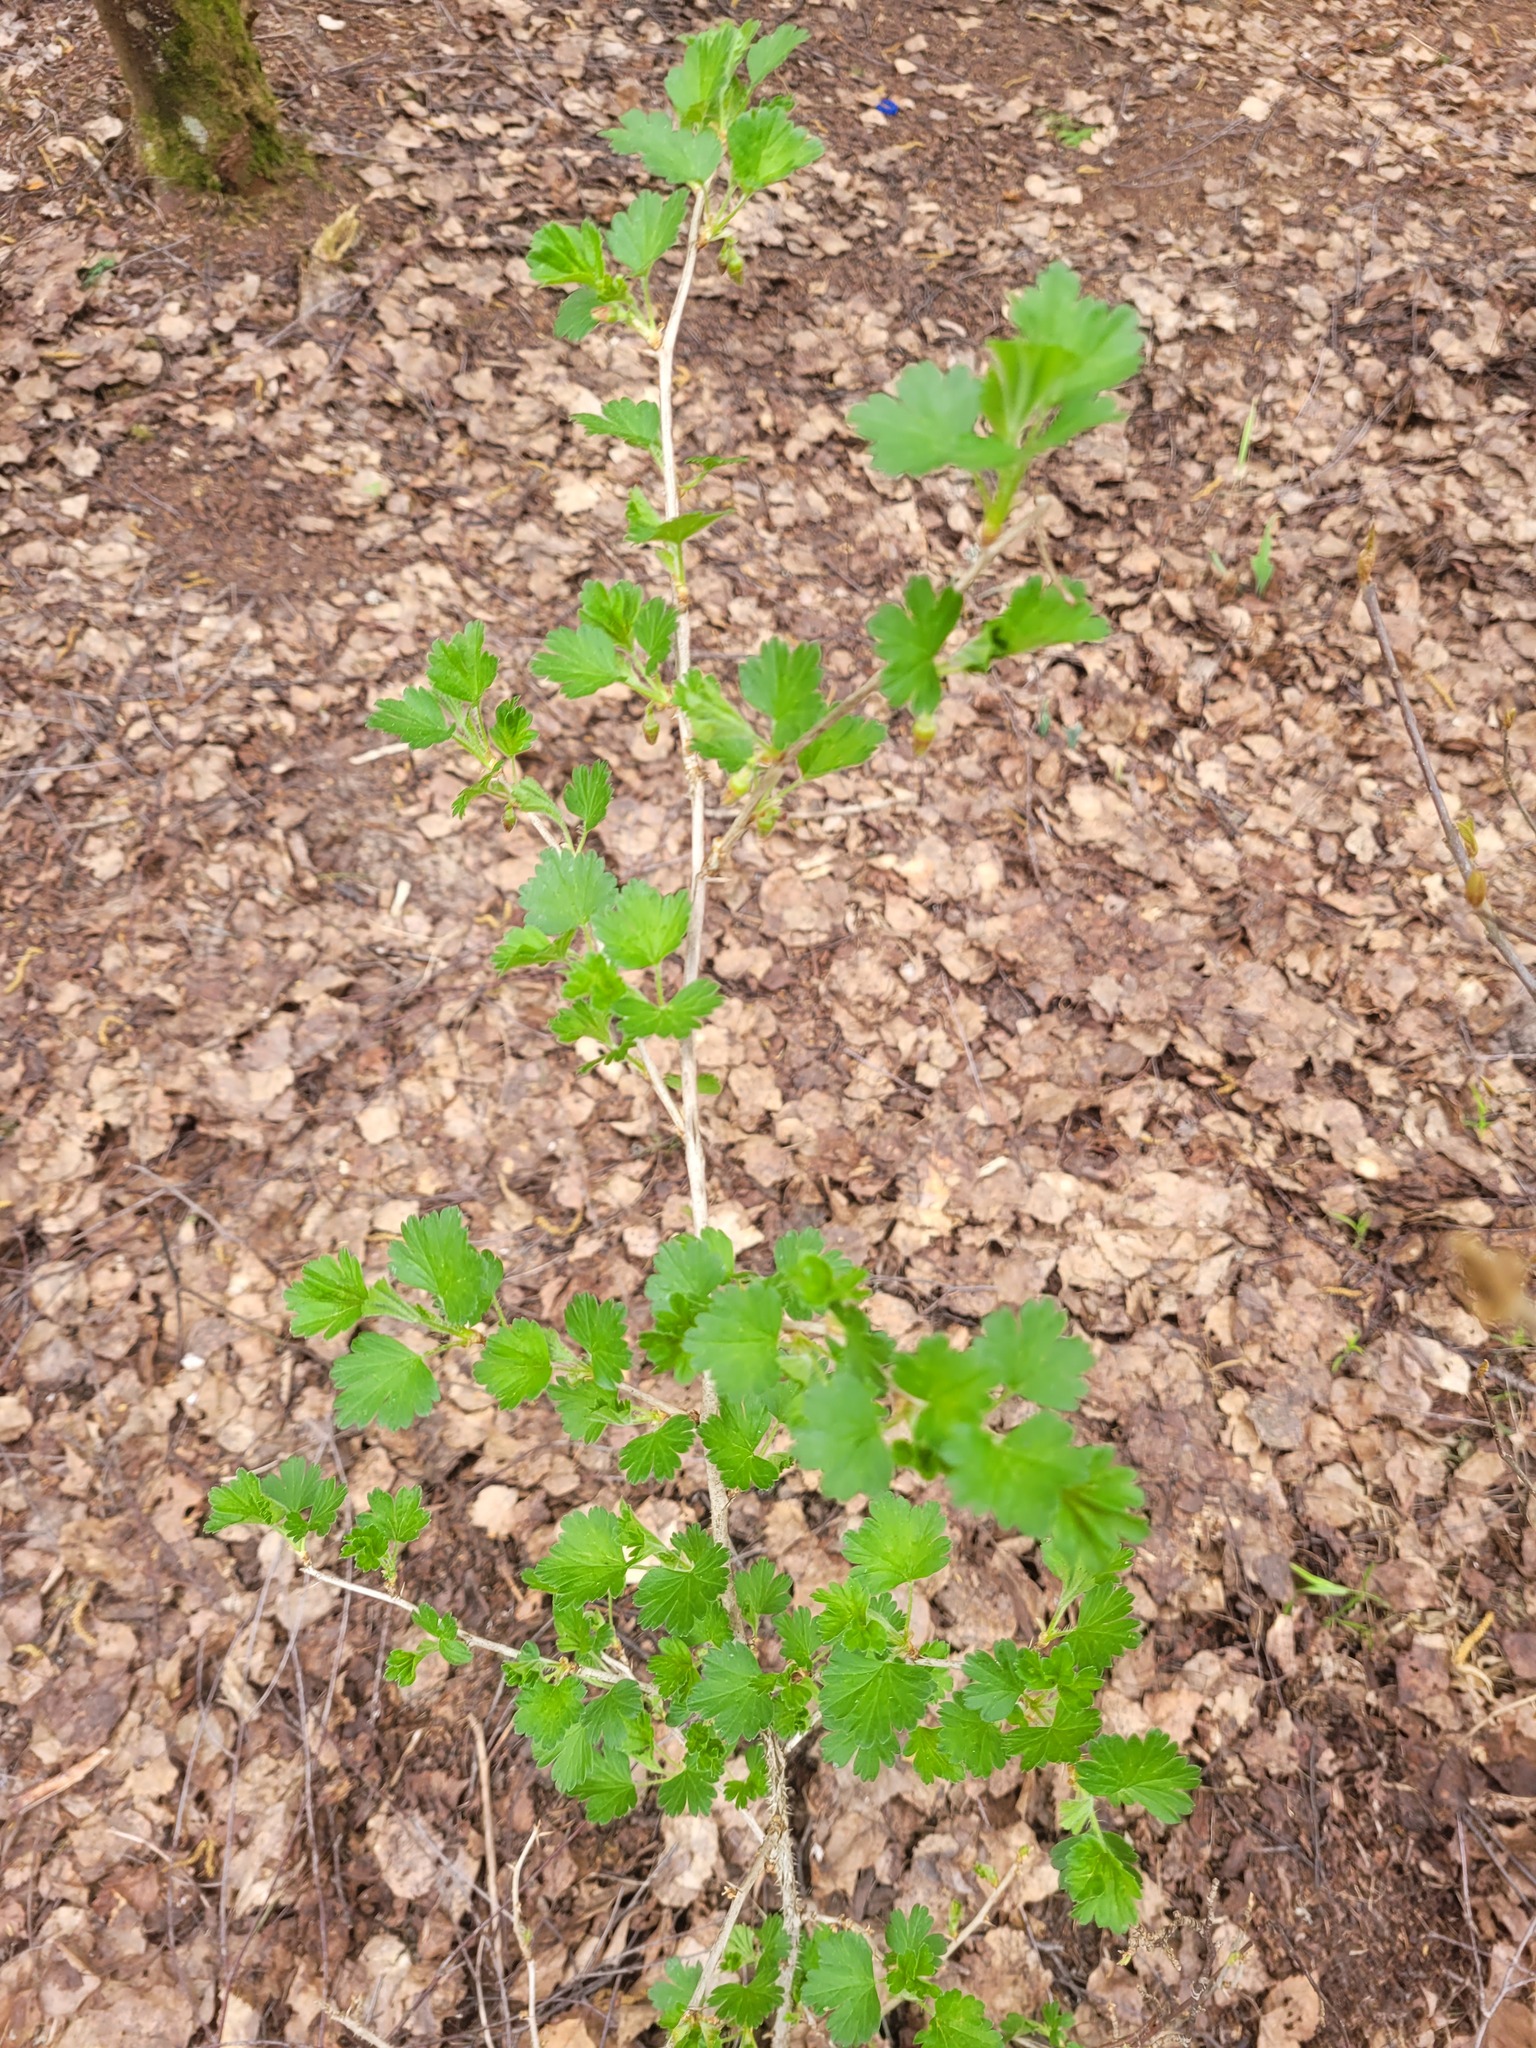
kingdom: Plantae
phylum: Tracheophyta
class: Magnoliopsida
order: Saxifragales
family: Grossulariaceae
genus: Ribes
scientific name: Ribes uva-crispa
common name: Gooseberry
